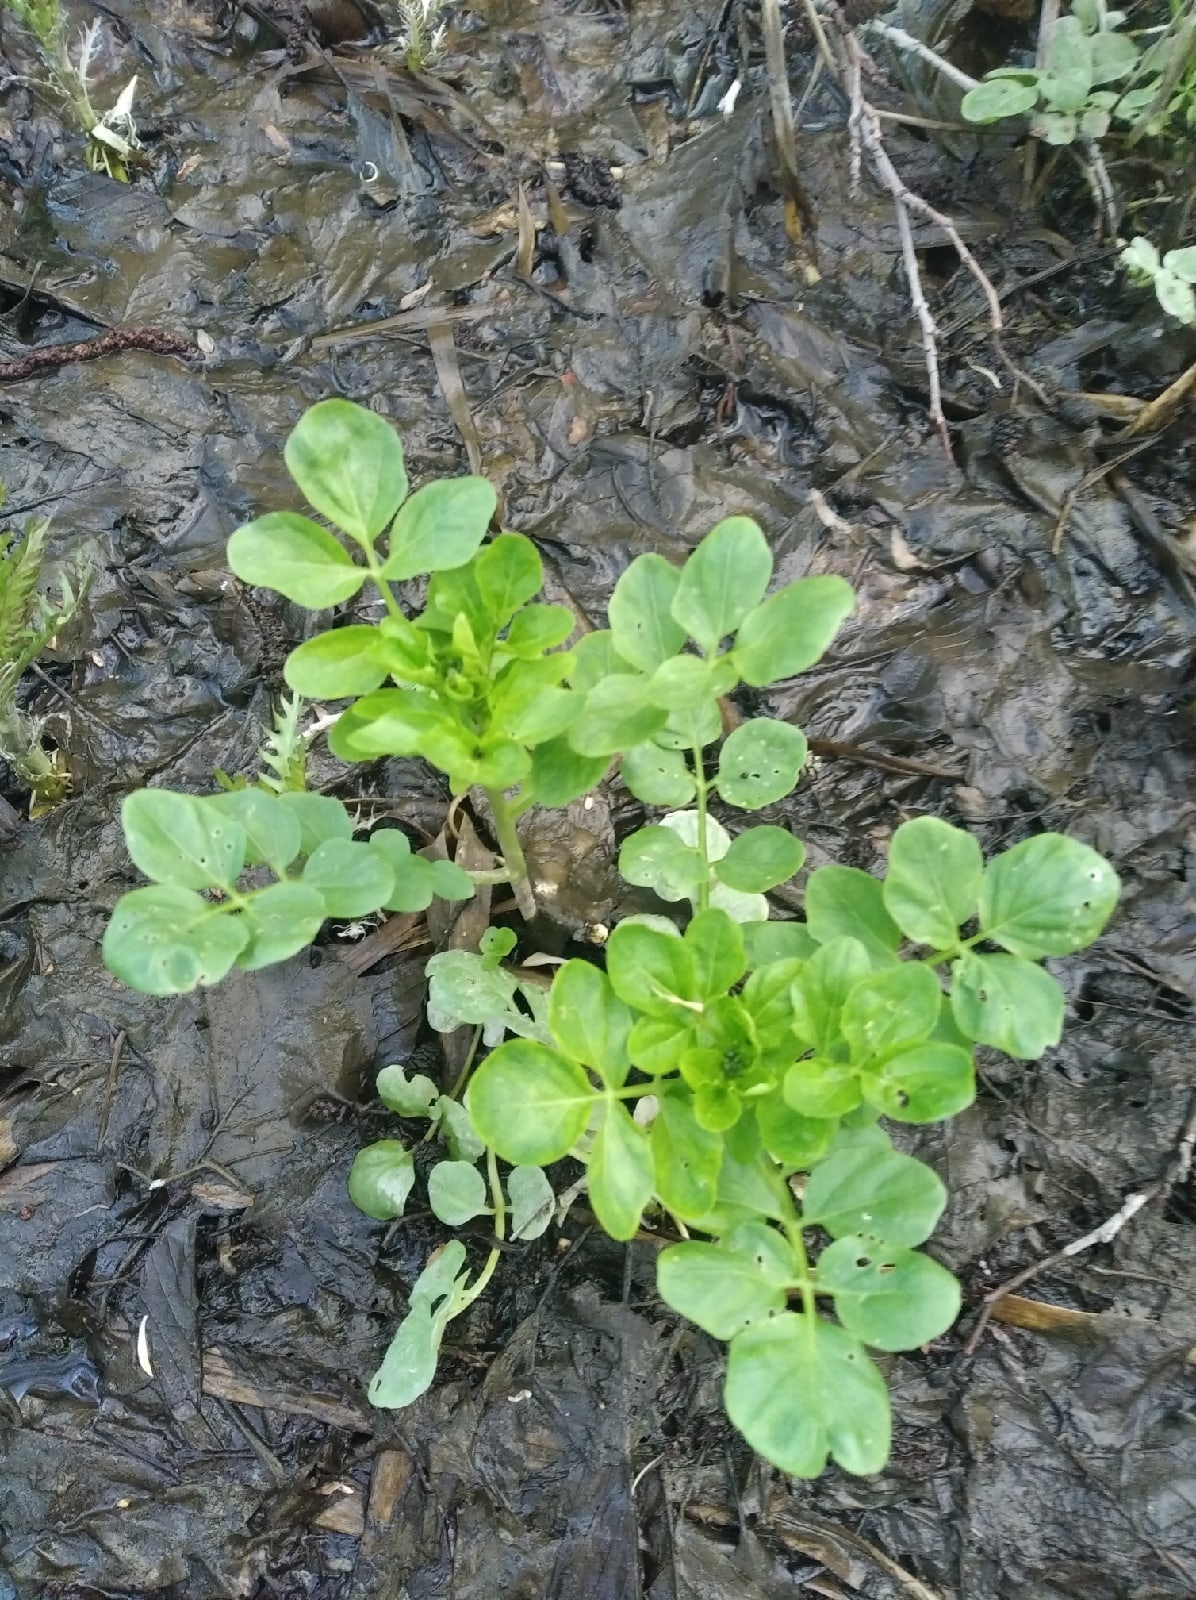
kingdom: Plantae
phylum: Tracheophyta
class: Magnoliopsida
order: Brassicales
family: Brassicaceae
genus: Cardamine
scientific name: Cardamine amara
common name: Large bitter-cress
